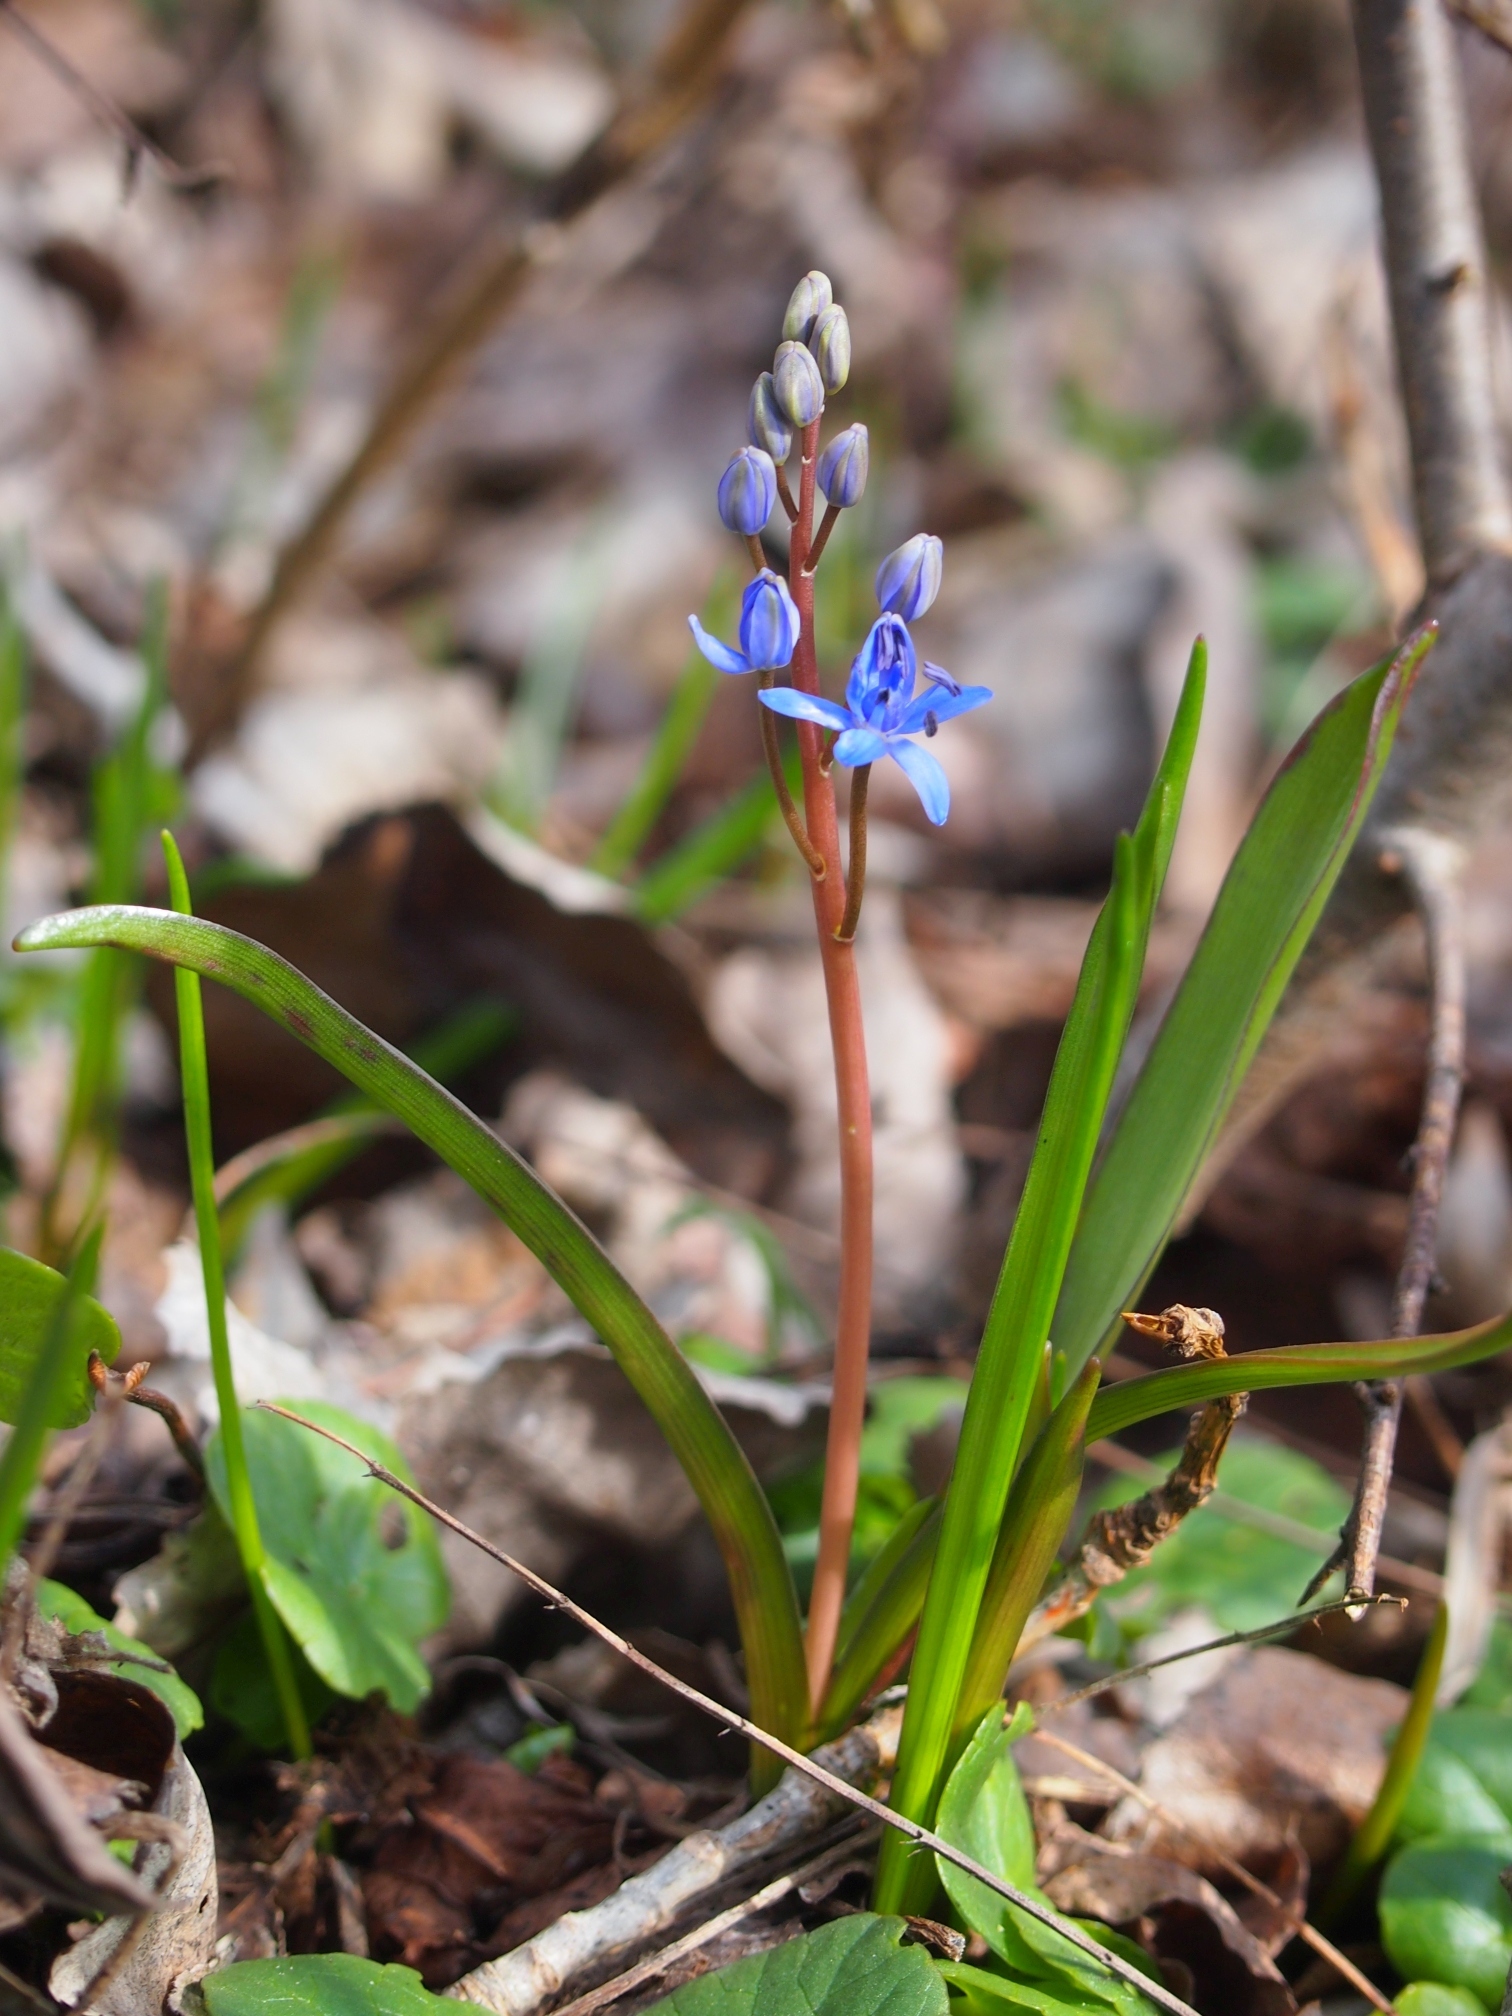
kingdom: Plantae
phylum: Tracheophyta
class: Liliopsida
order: Asparagales
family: Asparagaceae
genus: Scilla
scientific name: Scilla vindobonensis
